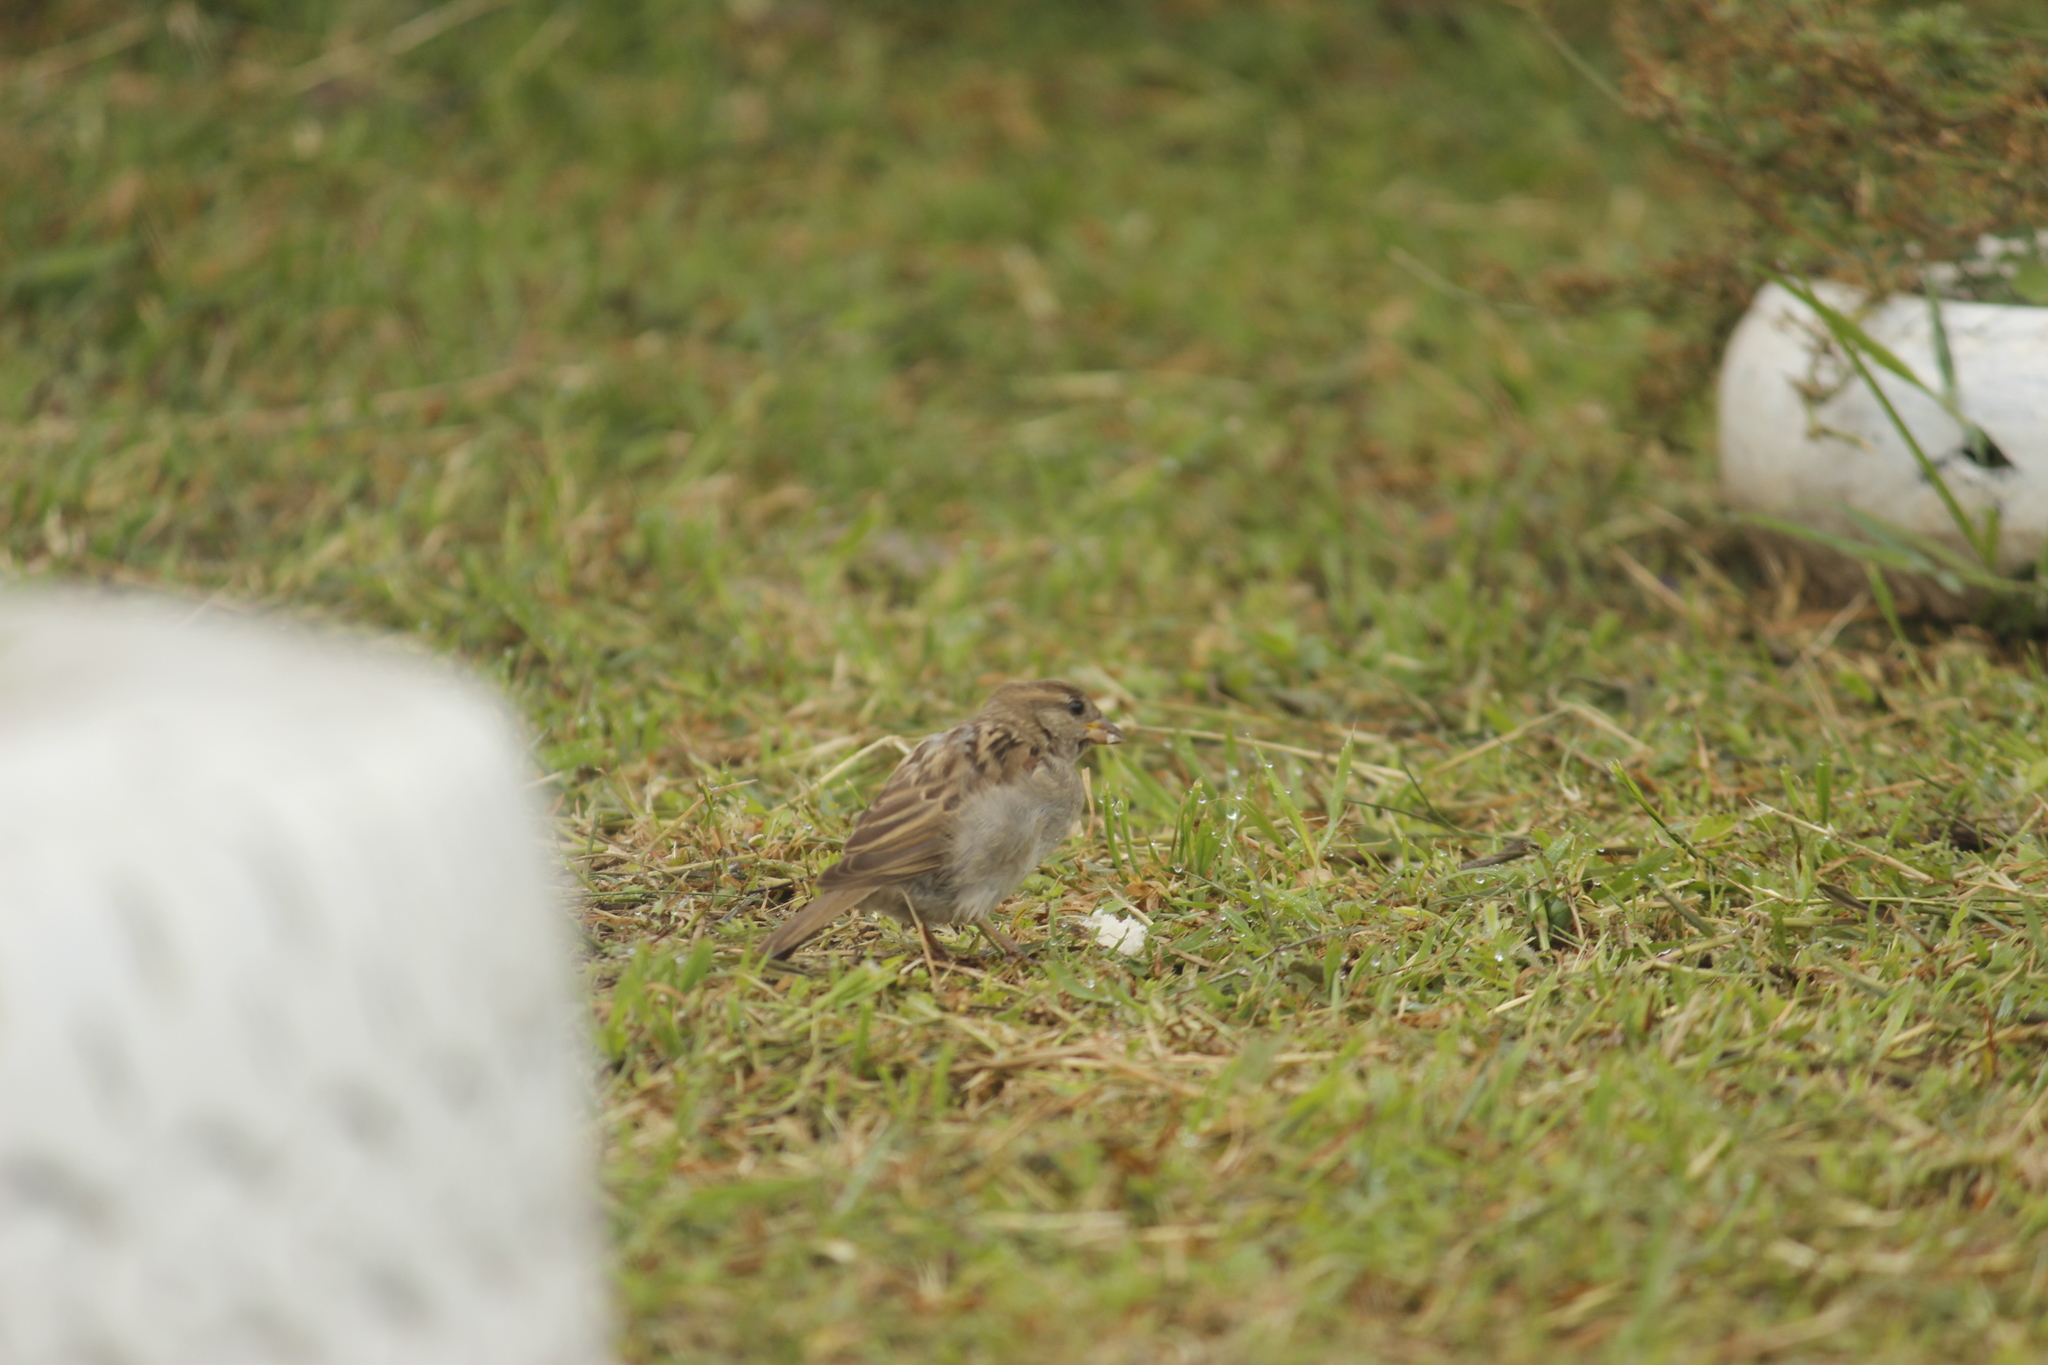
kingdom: Animalia
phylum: Chordata
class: Aves
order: Passeriformes
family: Passeridae
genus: Passer
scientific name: Passer domesticus
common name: House sparrow
